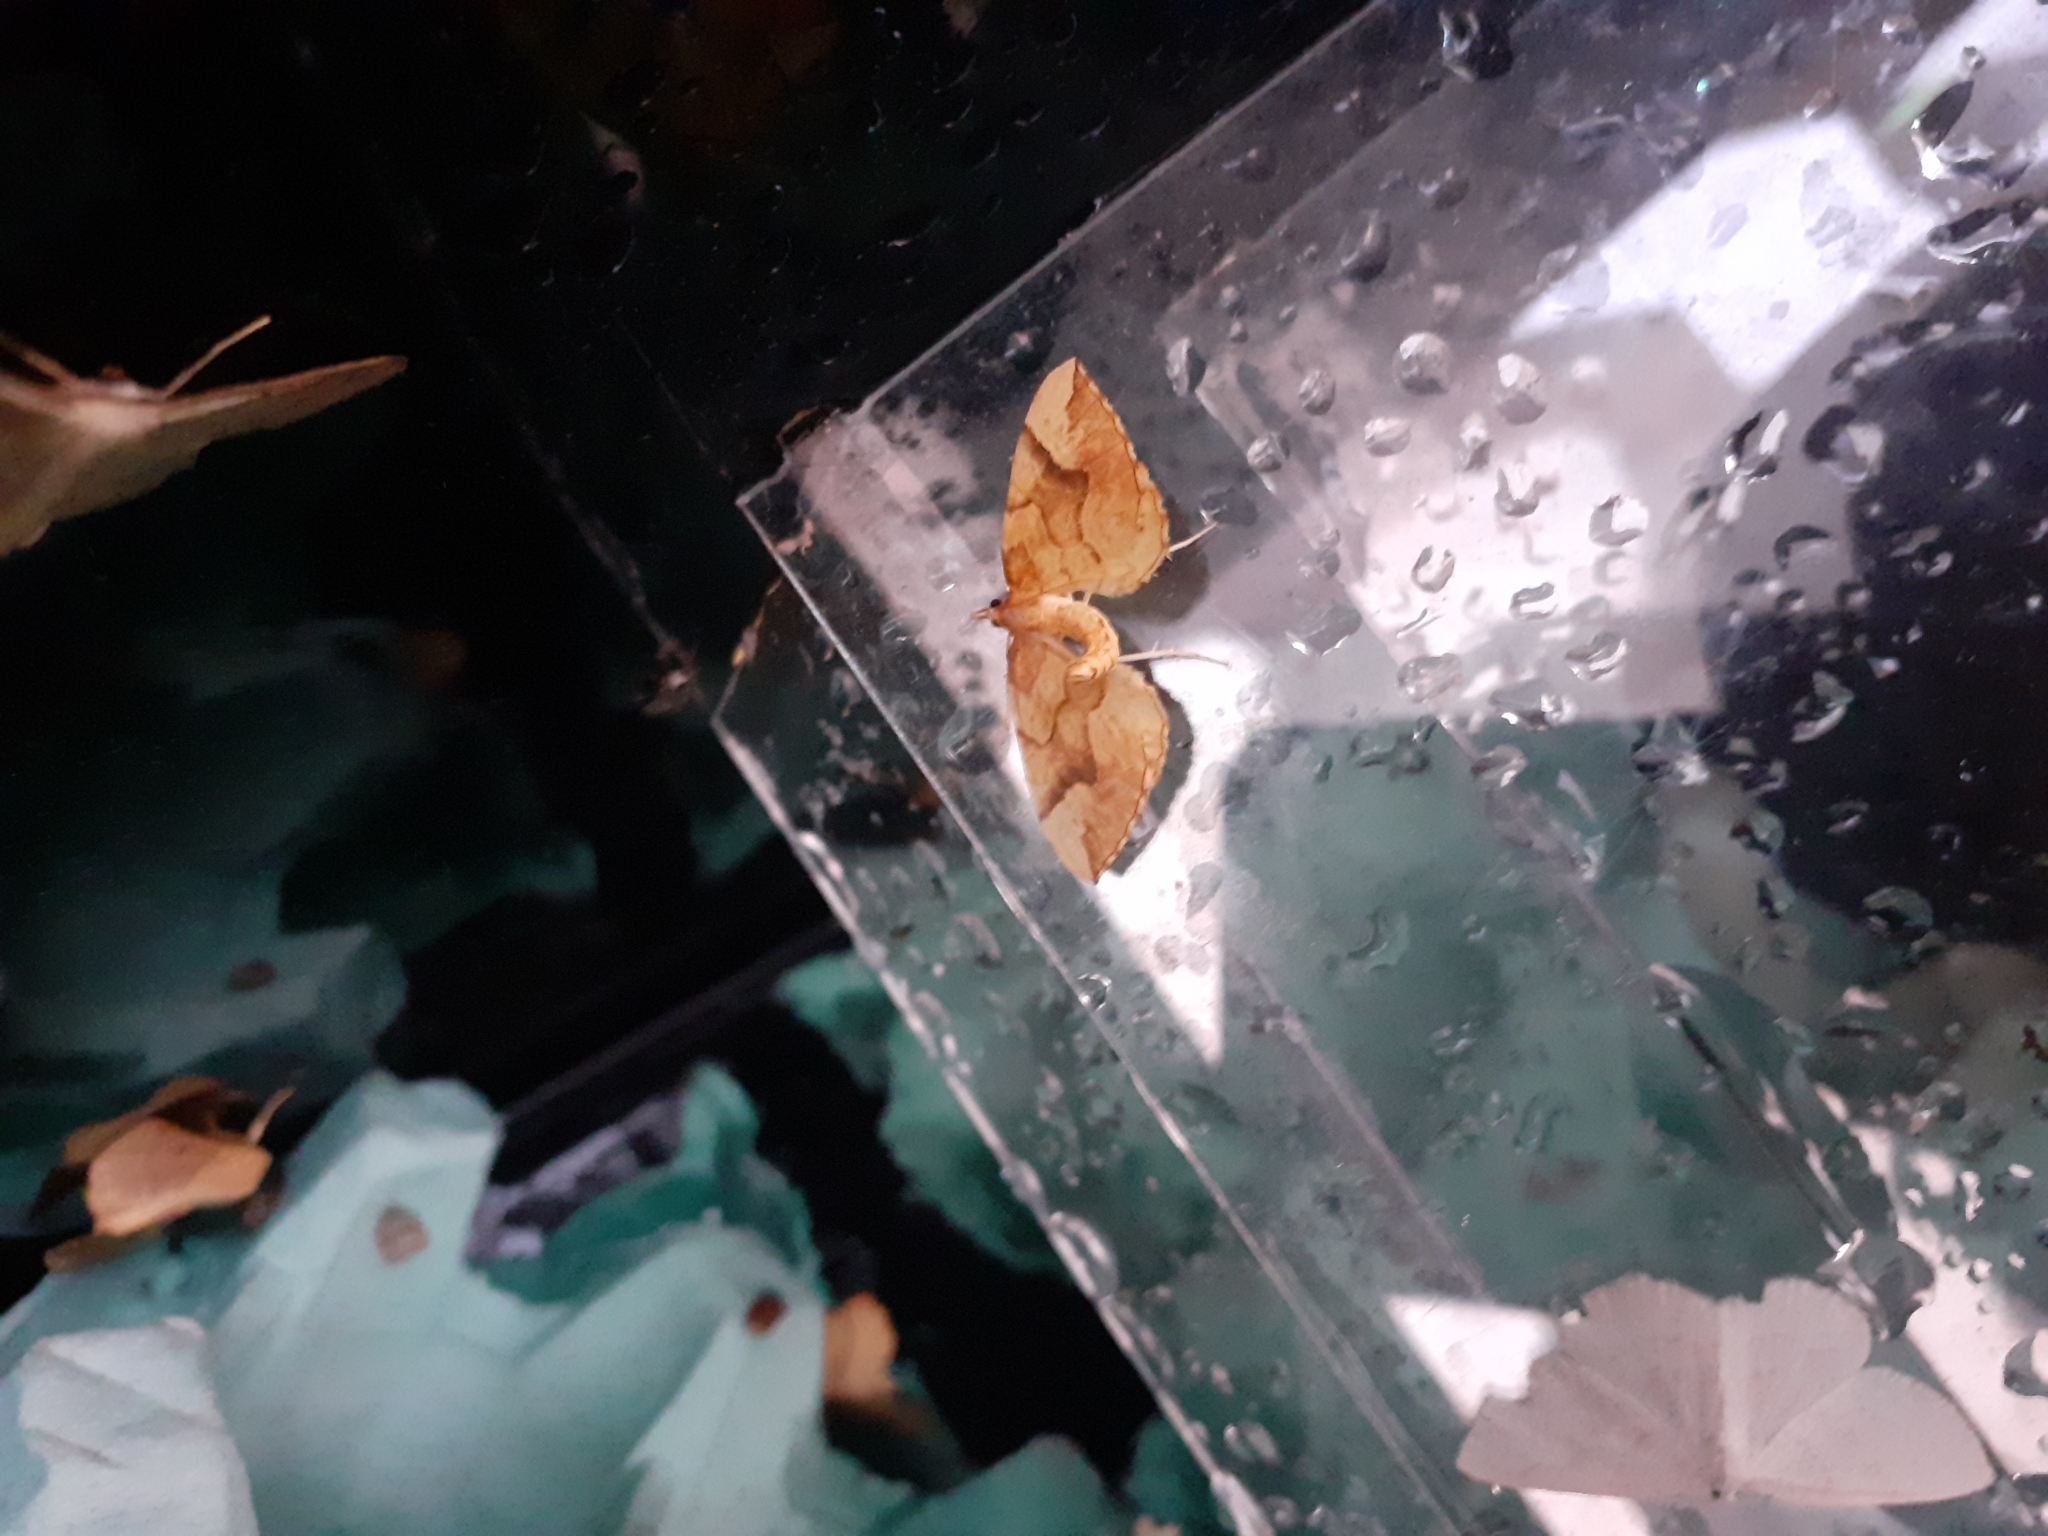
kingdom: Animalia
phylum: Arthropoda
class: Insecta
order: Lepidoptera
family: Geometridae
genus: Eulithis
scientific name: Eulithis mellinata
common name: Spinach
